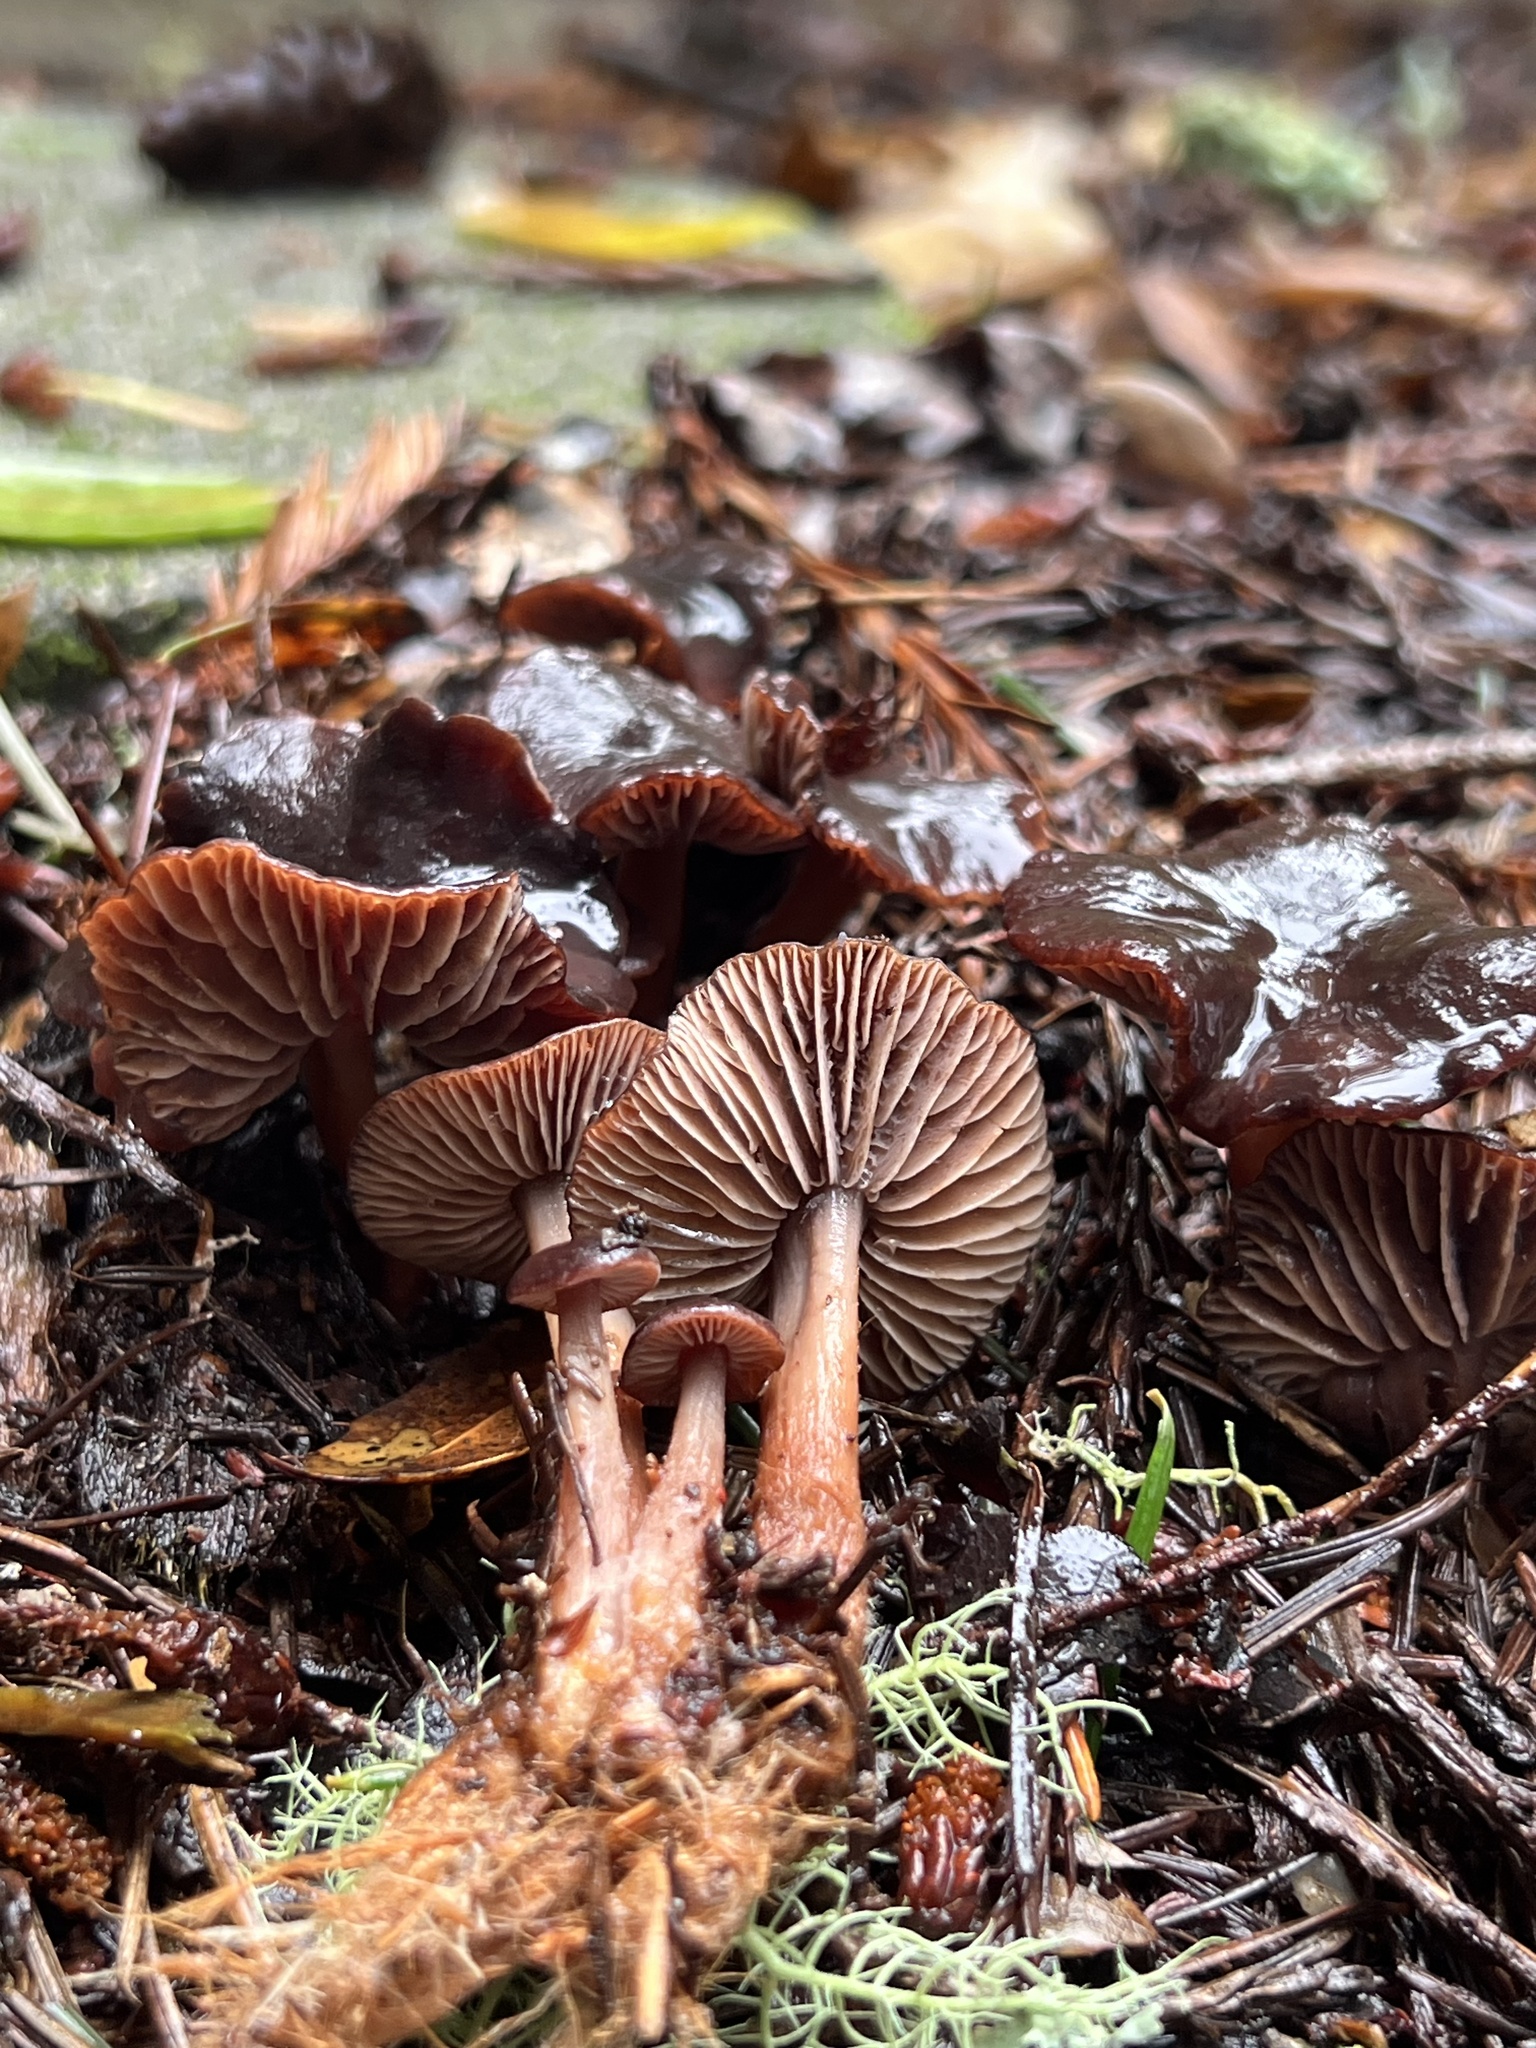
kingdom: Fungi
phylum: Basidiomycota
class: Agaricomycetes
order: Agaricales
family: Omphalotaceae
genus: Collybiopsis
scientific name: Collybiopsis villosipes
